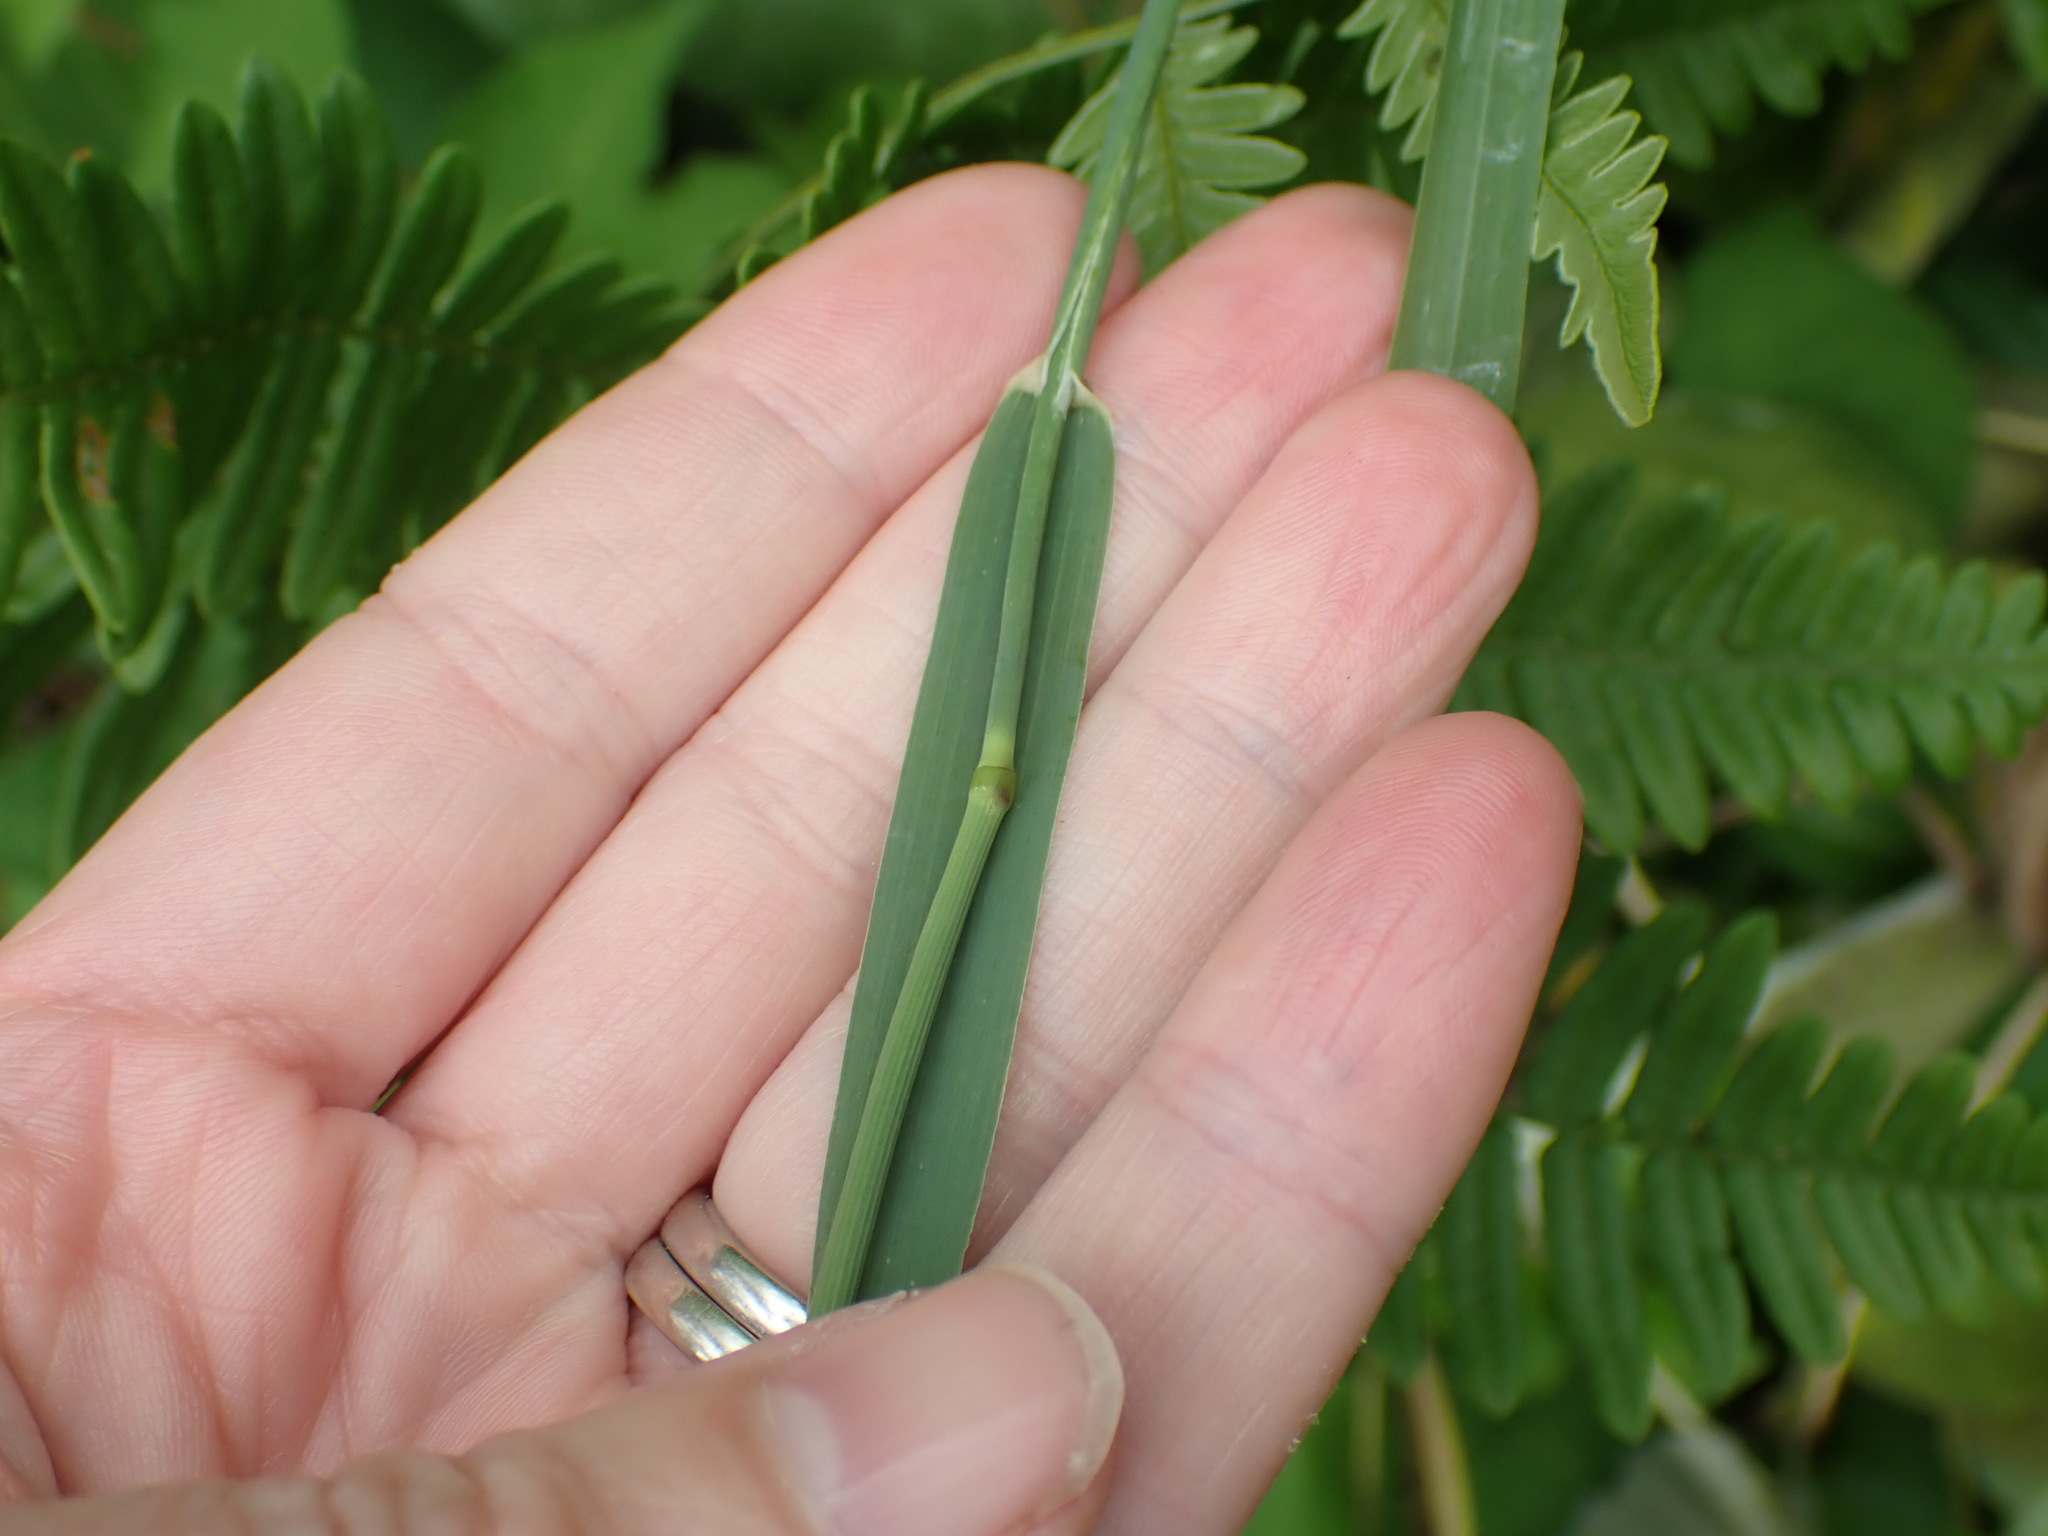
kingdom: Plantae
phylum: Tracheophyta
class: Liliopsida
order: Poales
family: Poaceae
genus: Phleum
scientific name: Phleum pratense
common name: Timothy grass
